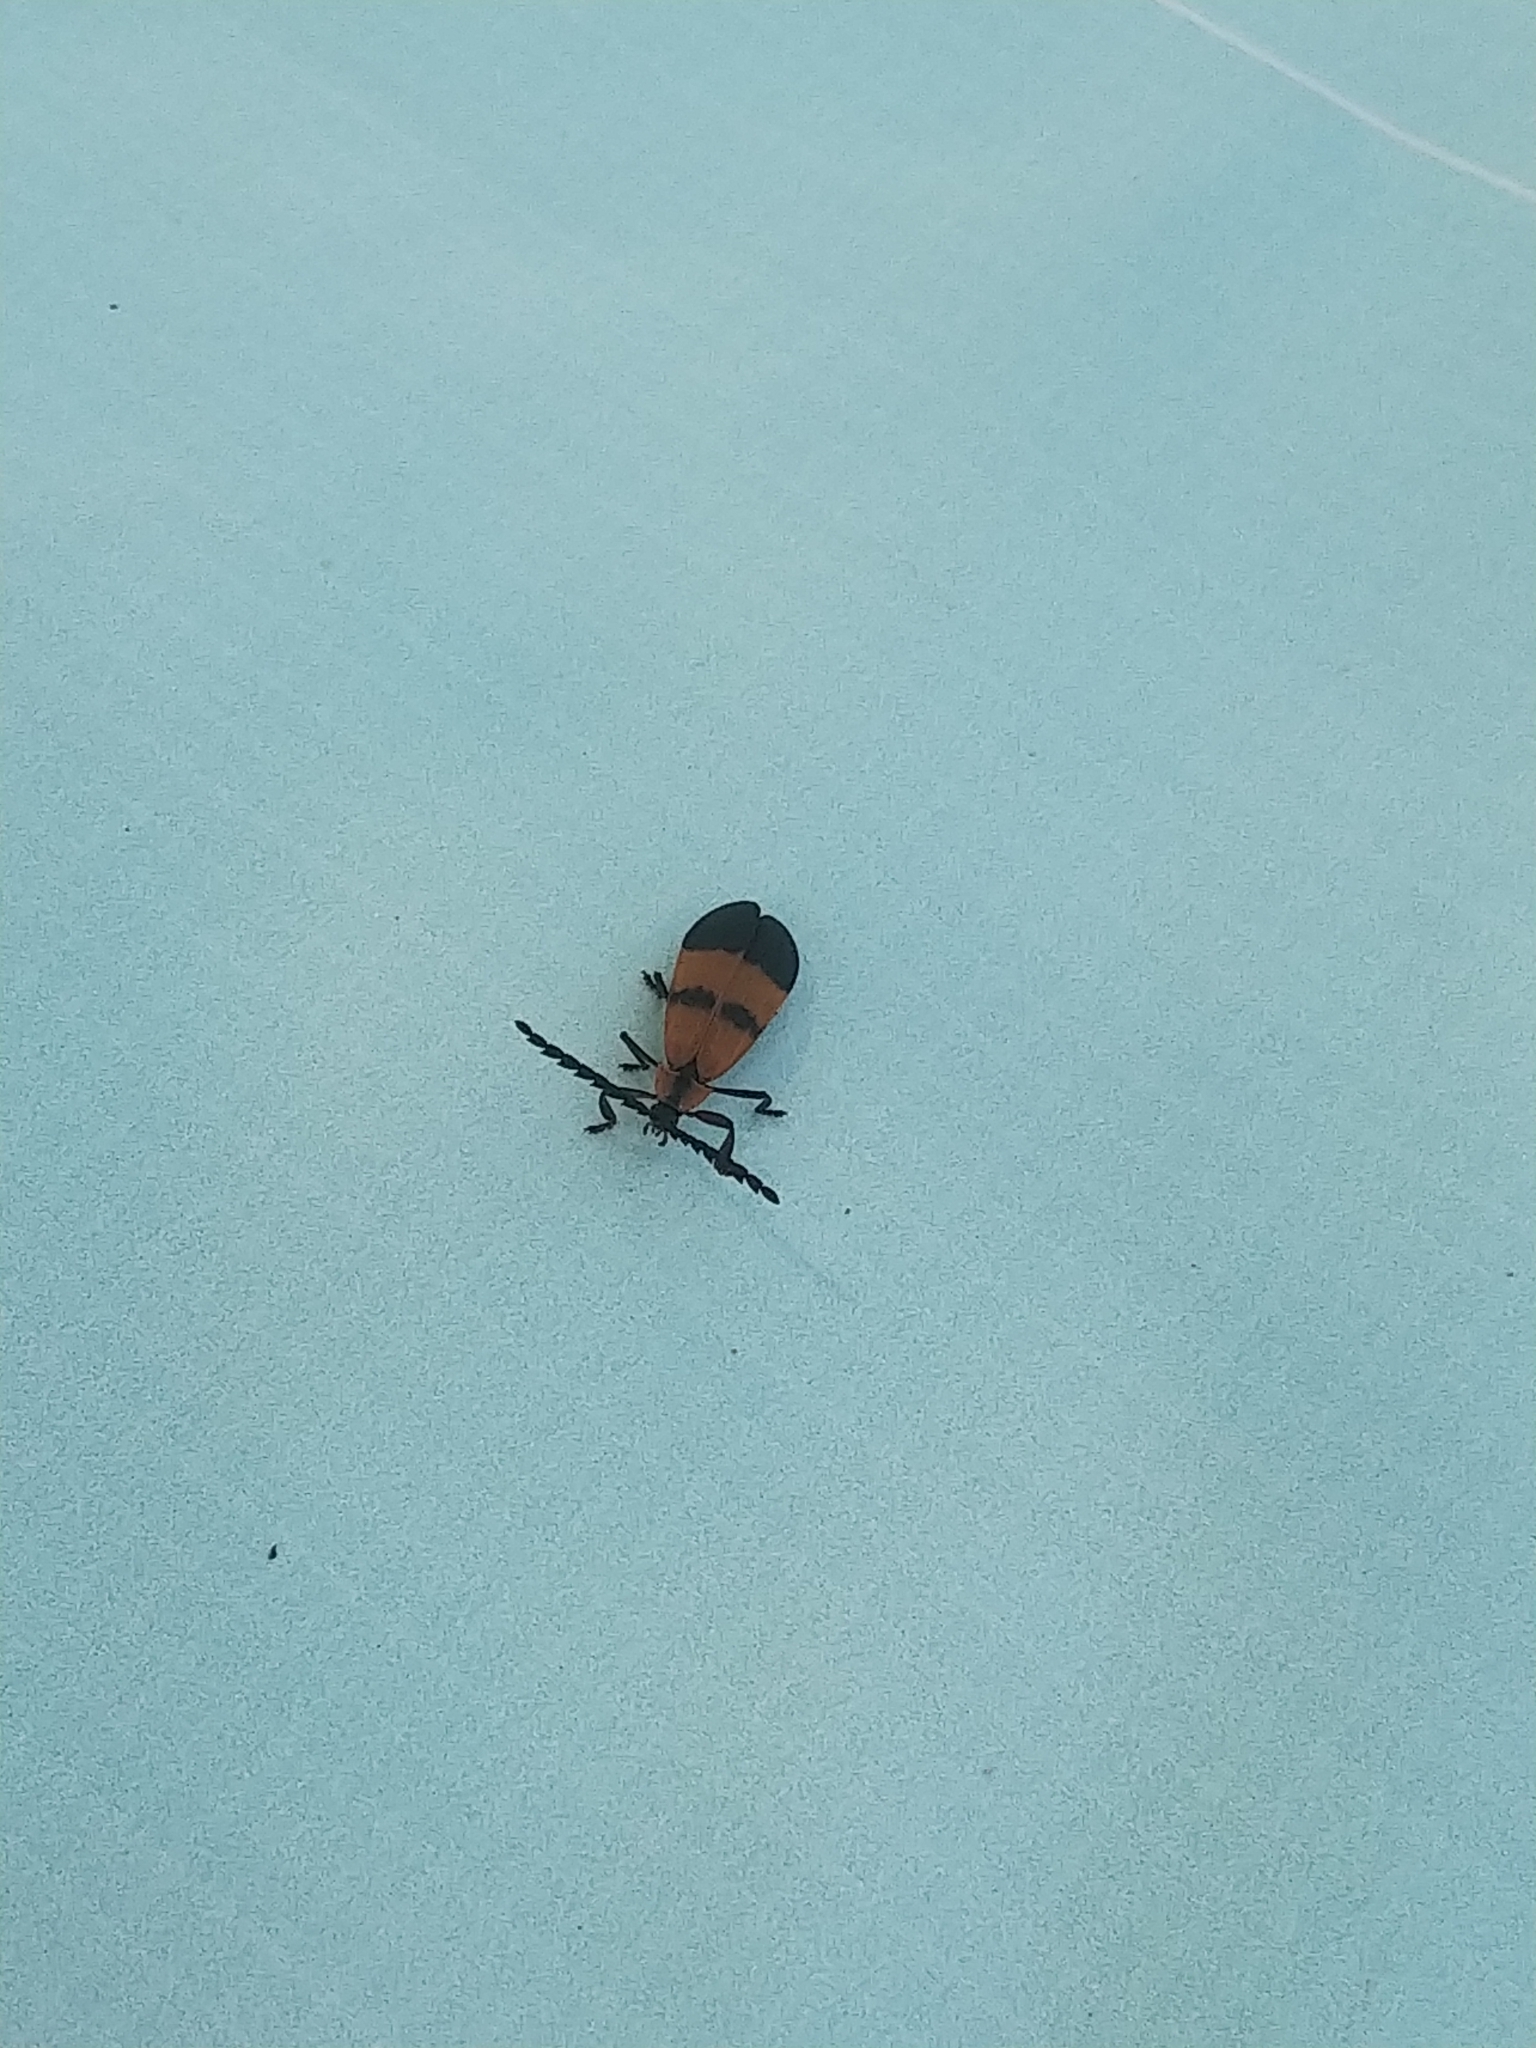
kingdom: Animalia
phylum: Arthropoda
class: Insecta
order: Coleoptera
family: Lycidae
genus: Calopteron
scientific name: Calopteron reticulatum
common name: Banded net-winged beetle
